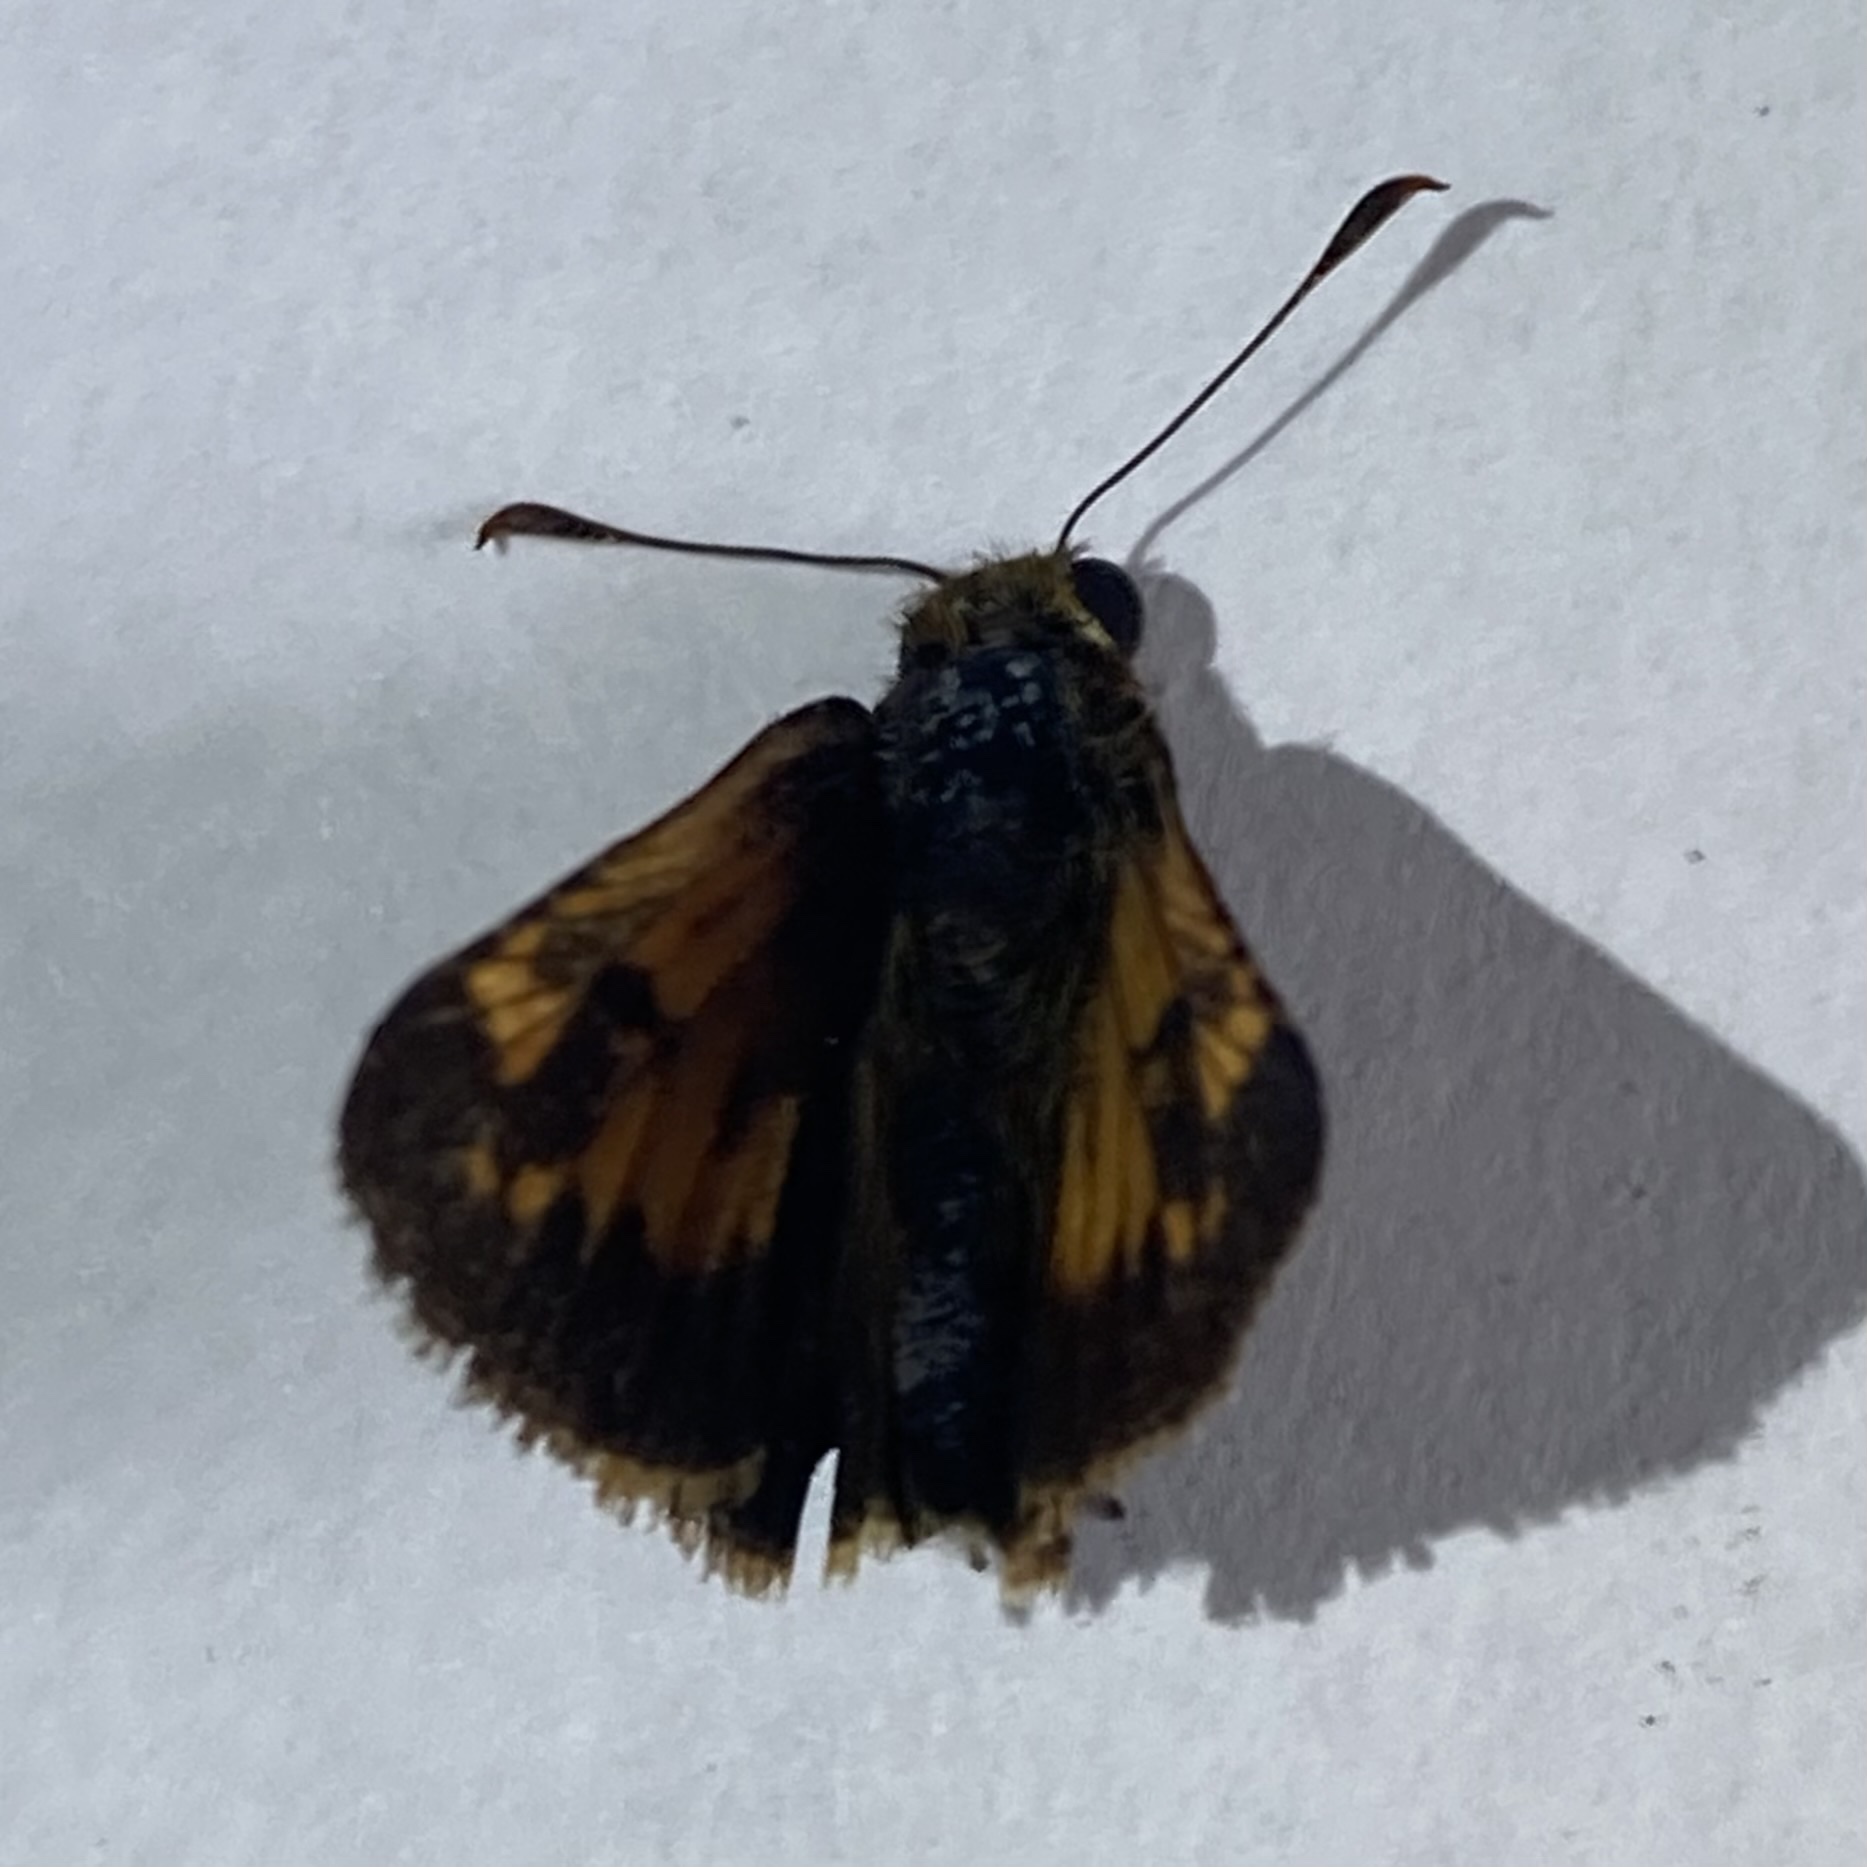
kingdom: Animalia
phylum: Arthropoda
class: Insecta
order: Lepidoptera
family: Hesperiidae
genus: Lon
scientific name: Lon hobomok
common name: Hobomok skipper
